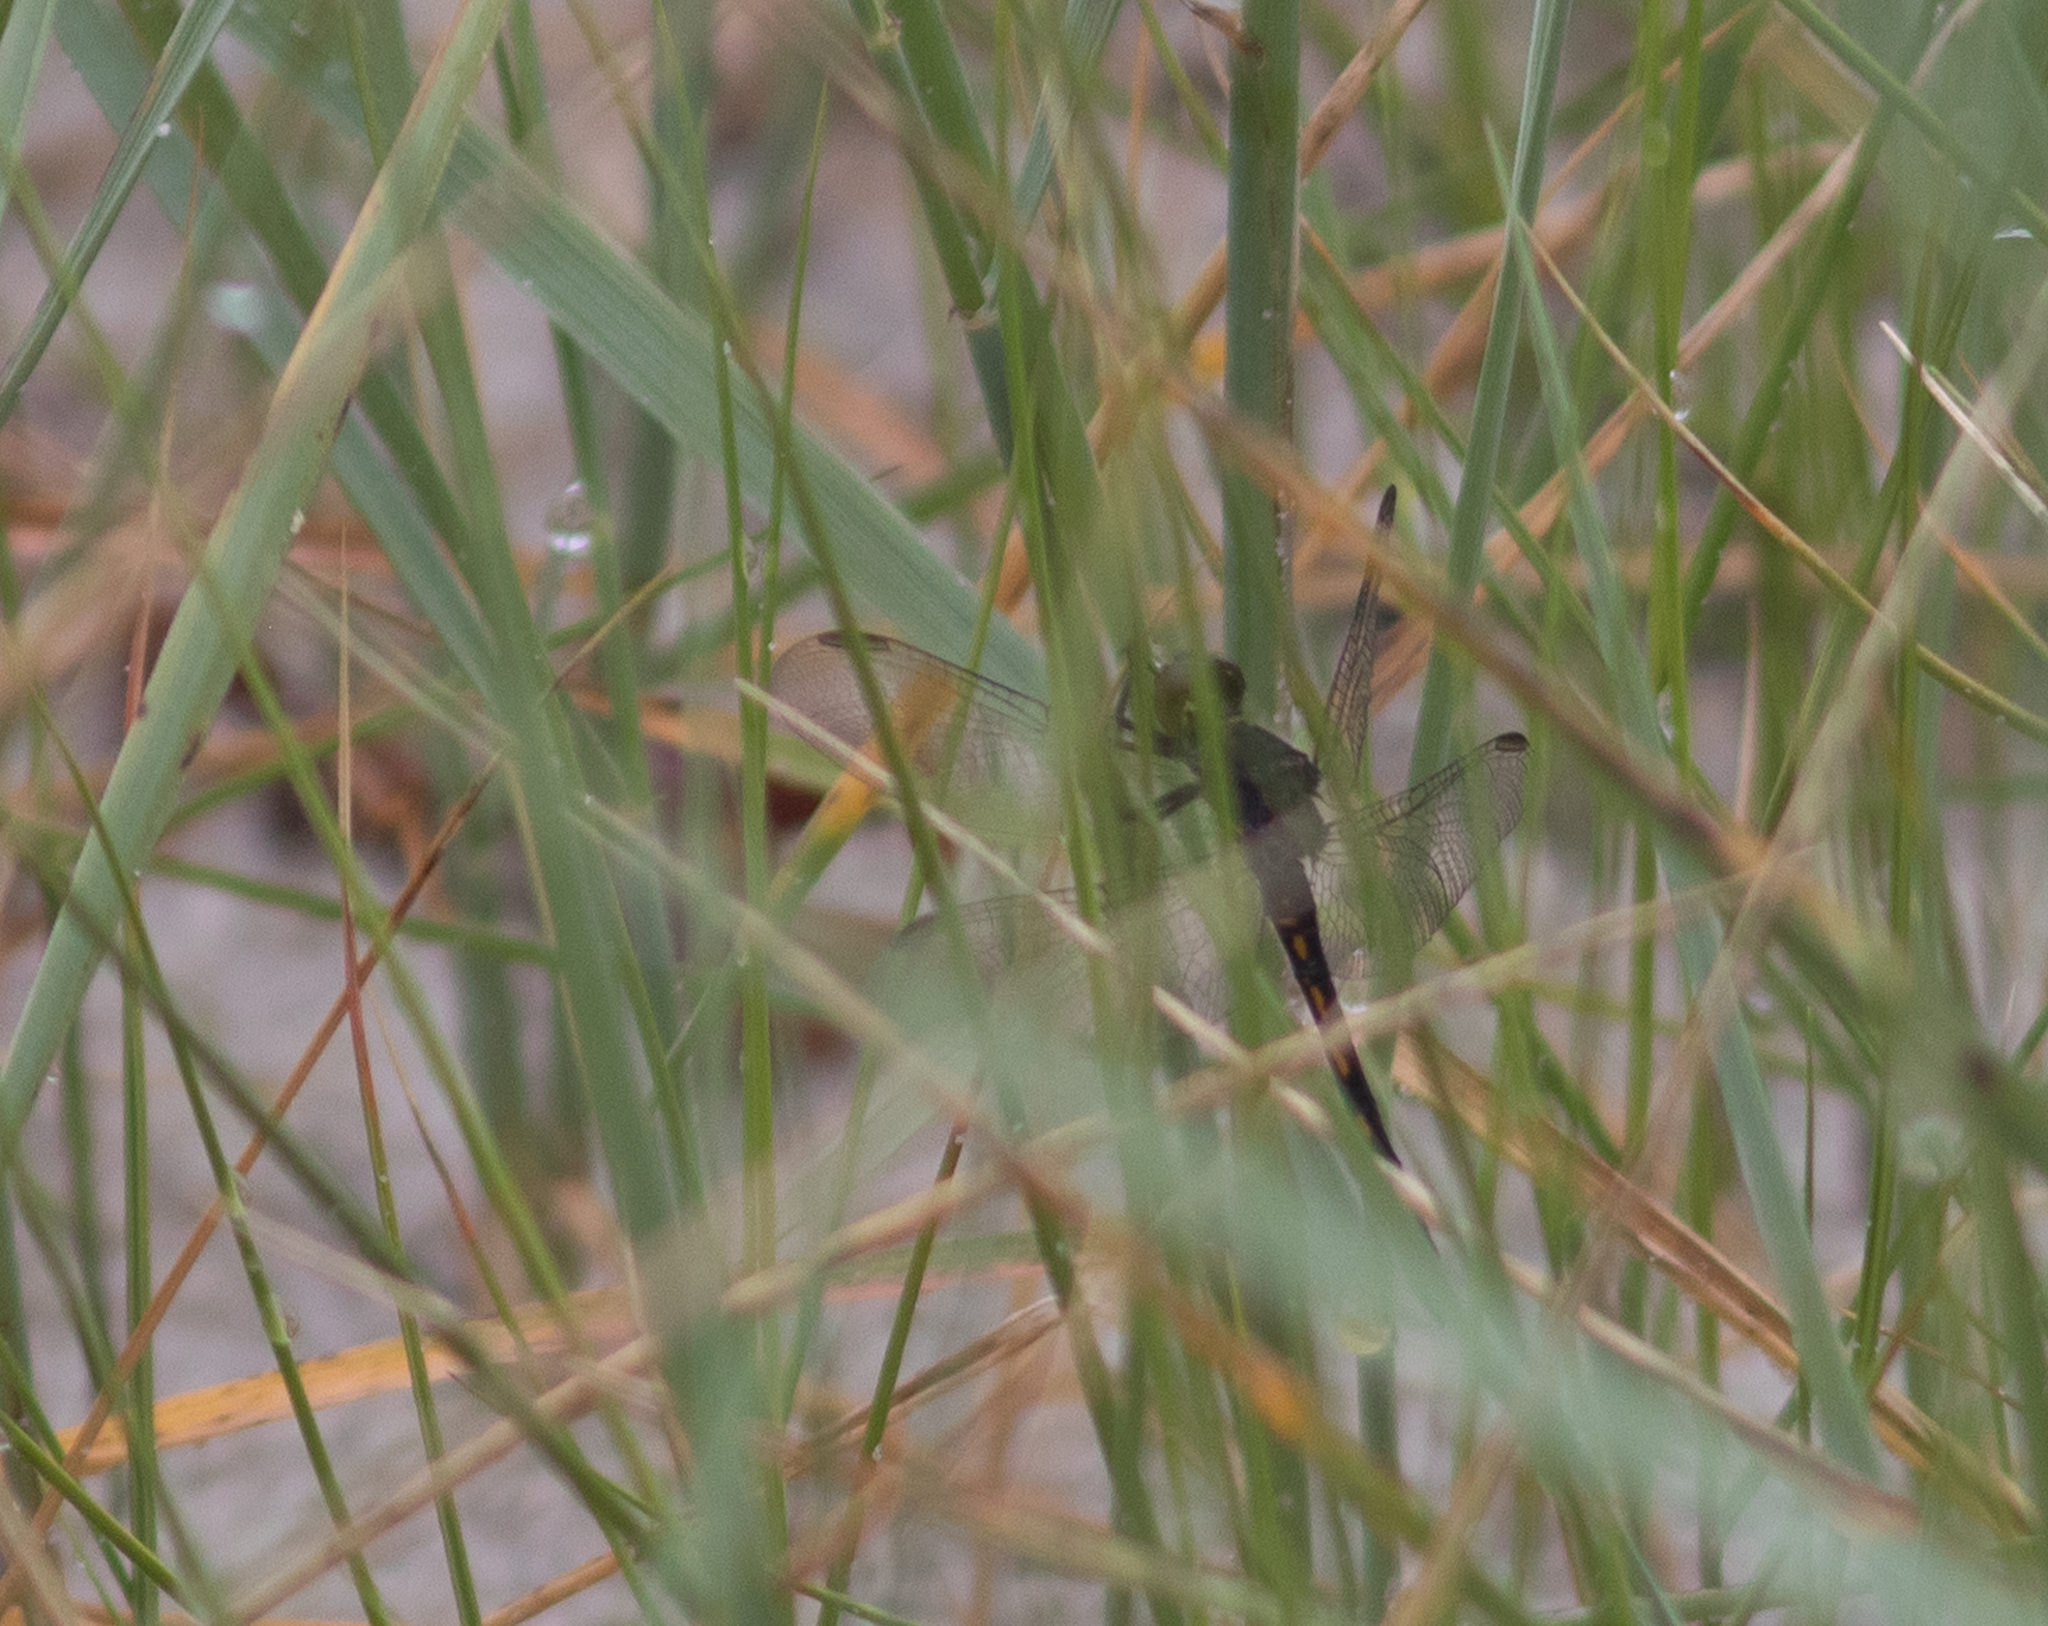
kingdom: Animalia
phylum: Arthropoda
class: Insecta
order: Odonata
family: Libellulidae
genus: Erythrodiplax
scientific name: Erythrodiplax berenice
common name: Seaside dragonlet
